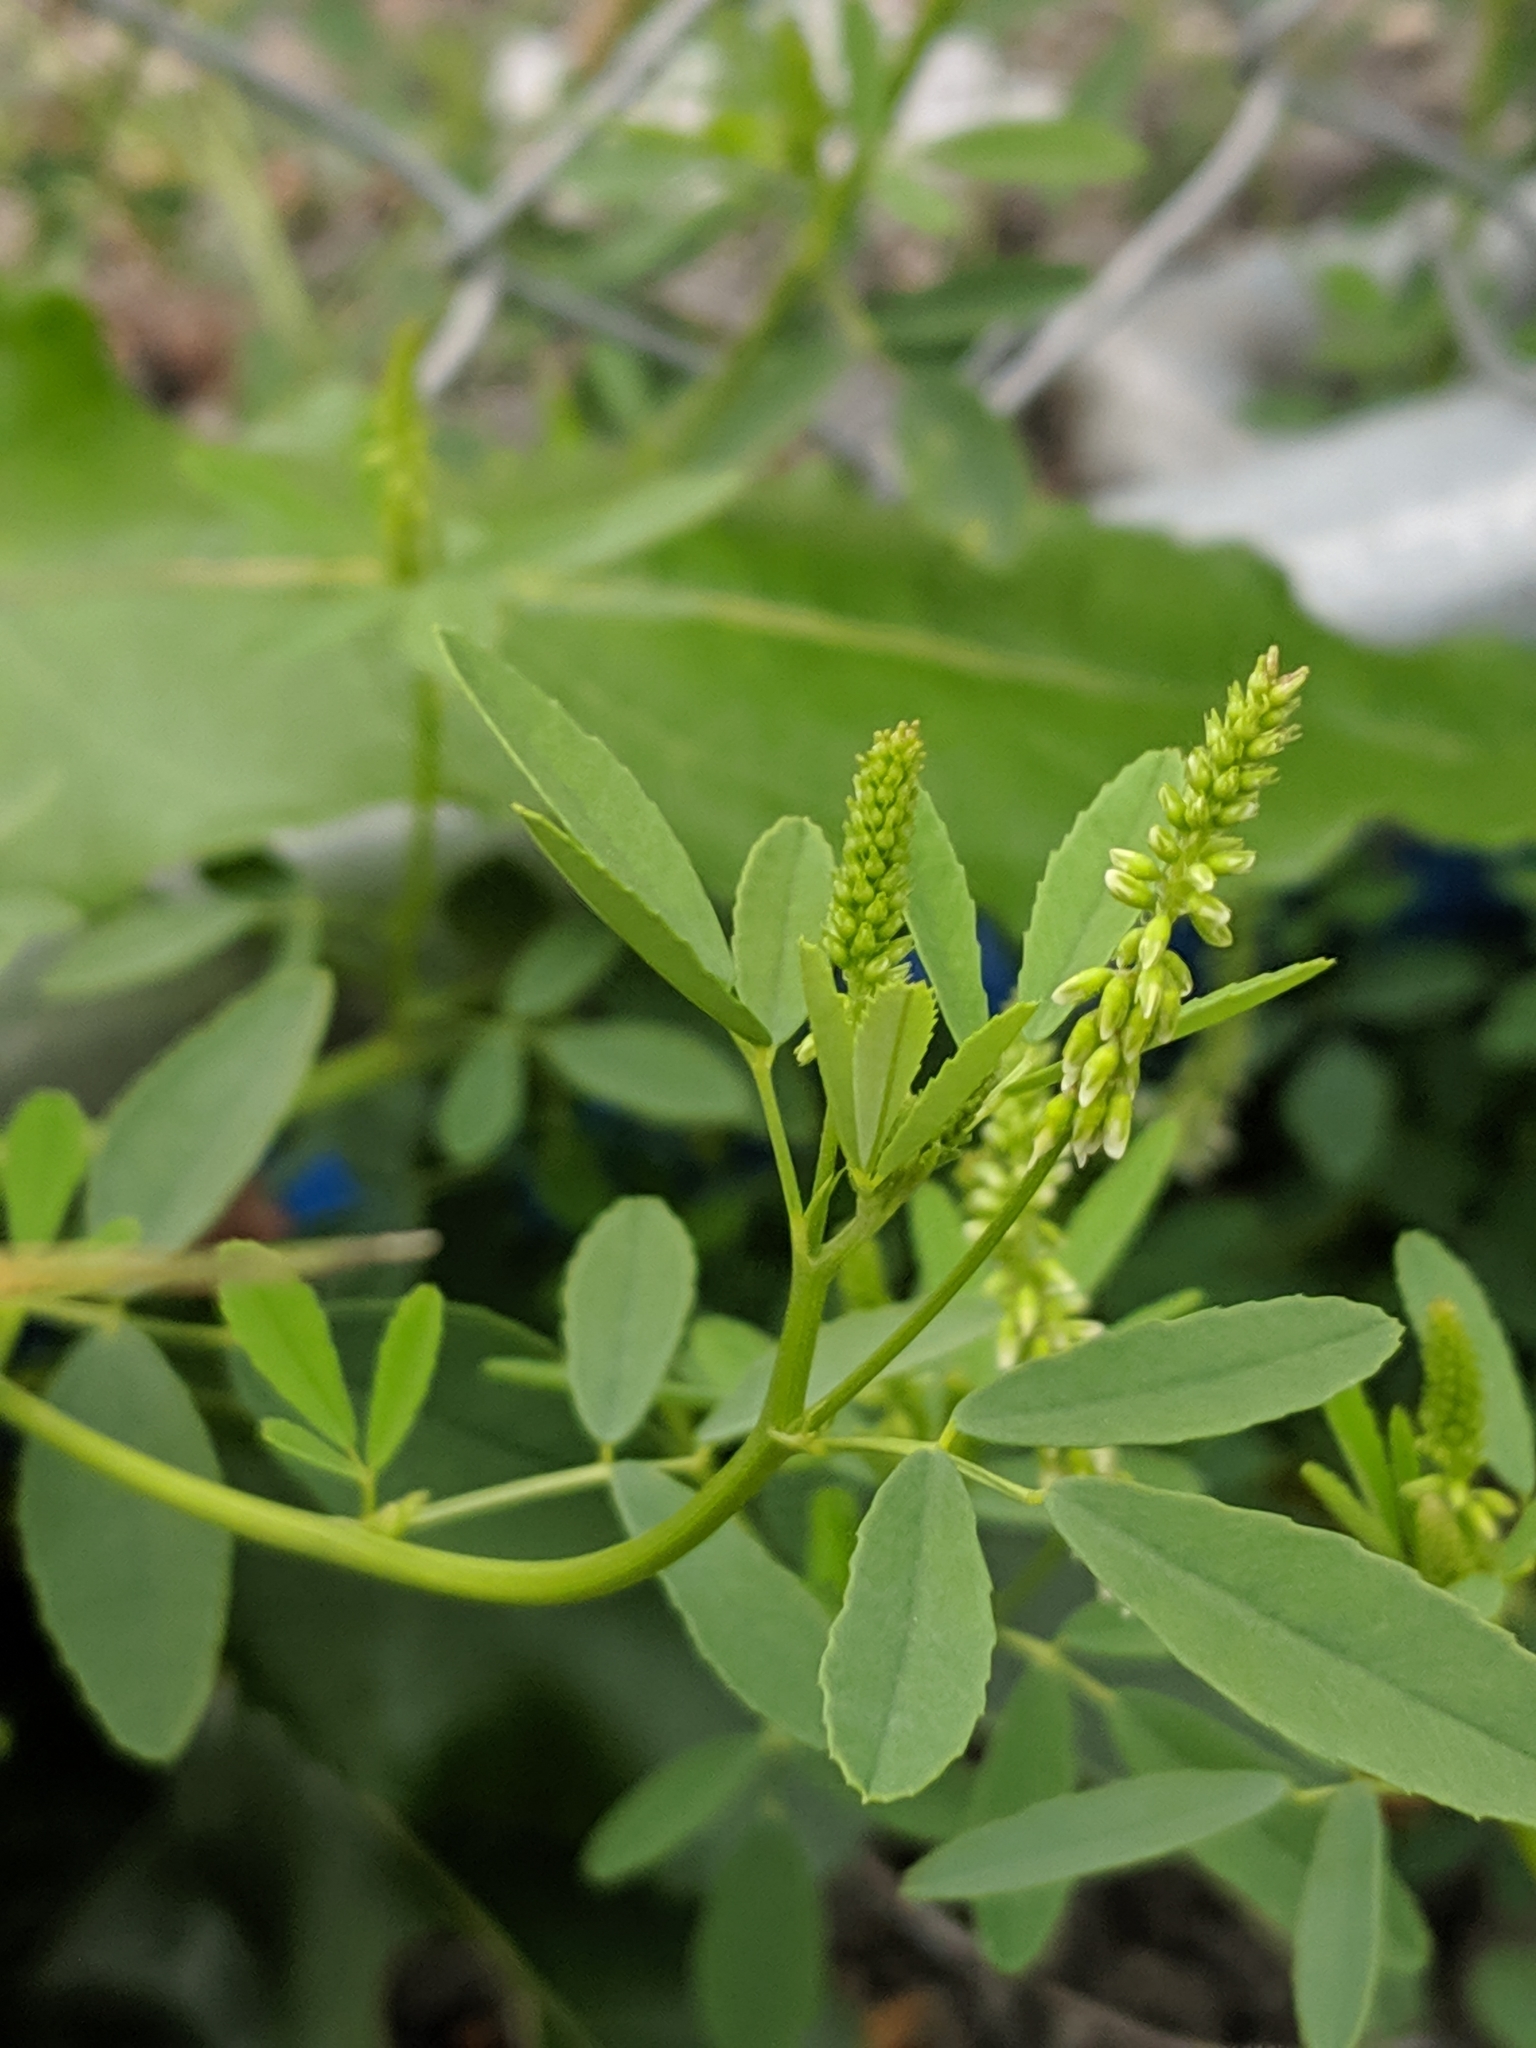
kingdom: Plantae
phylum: Tracheophyta
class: Magnoliopsida
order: Fabales
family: Fabaceae
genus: Melilotus
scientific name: Melilotus albus
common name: White melilot
